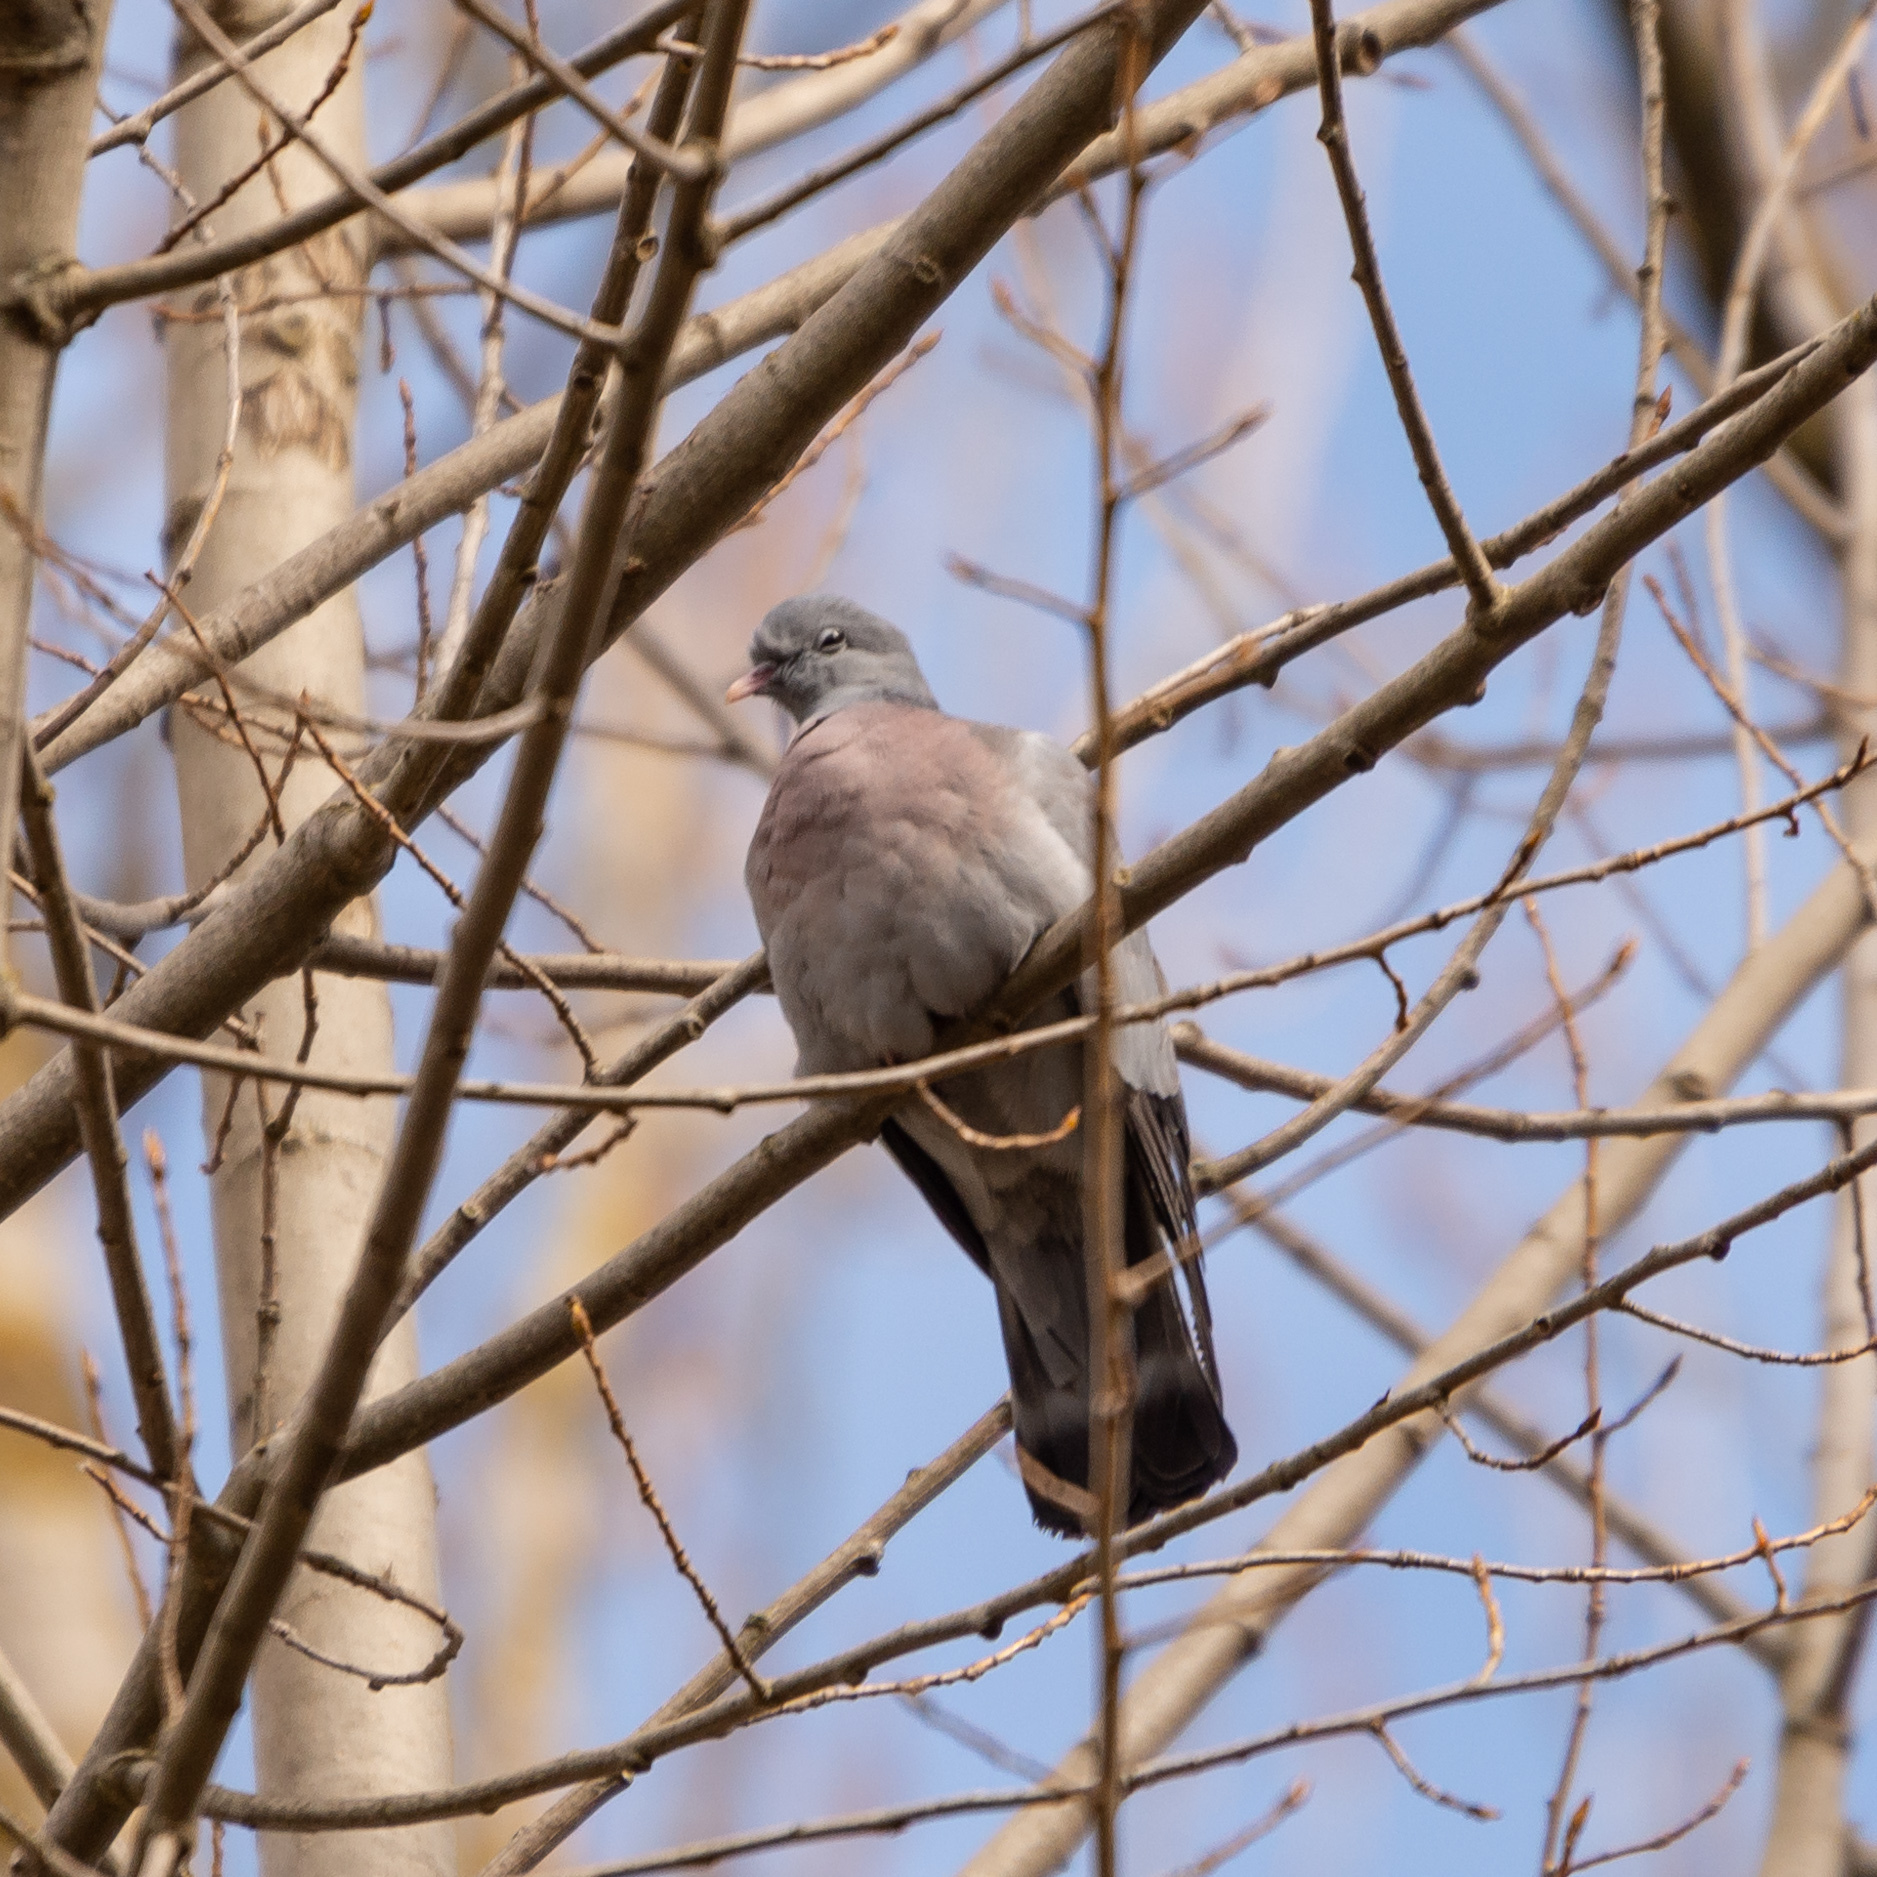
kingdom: Animalia
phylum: Chordata
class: Aves
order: Columbiformes
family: Columbidae
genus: Columba
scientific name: Columba oenas
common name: Stock dove
